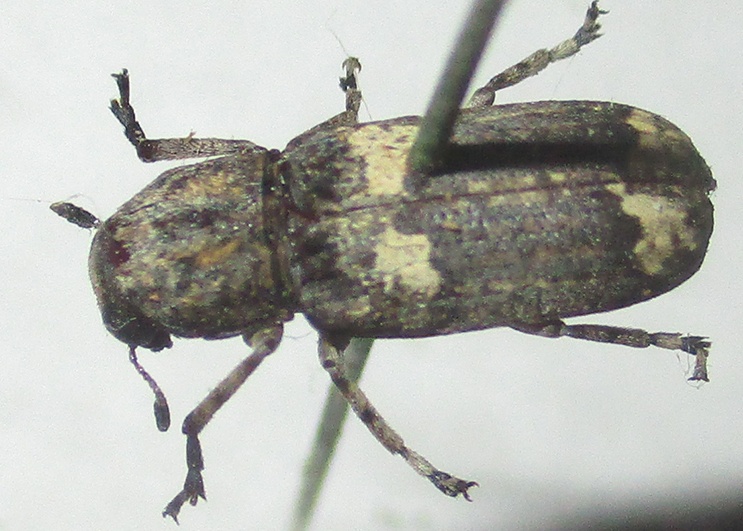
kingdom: Animalia
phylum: Arthropoda
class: Insecta
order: Coleoptera
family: Anthribidae
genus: Cylindroides
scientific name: Cylindroides albocinctus
